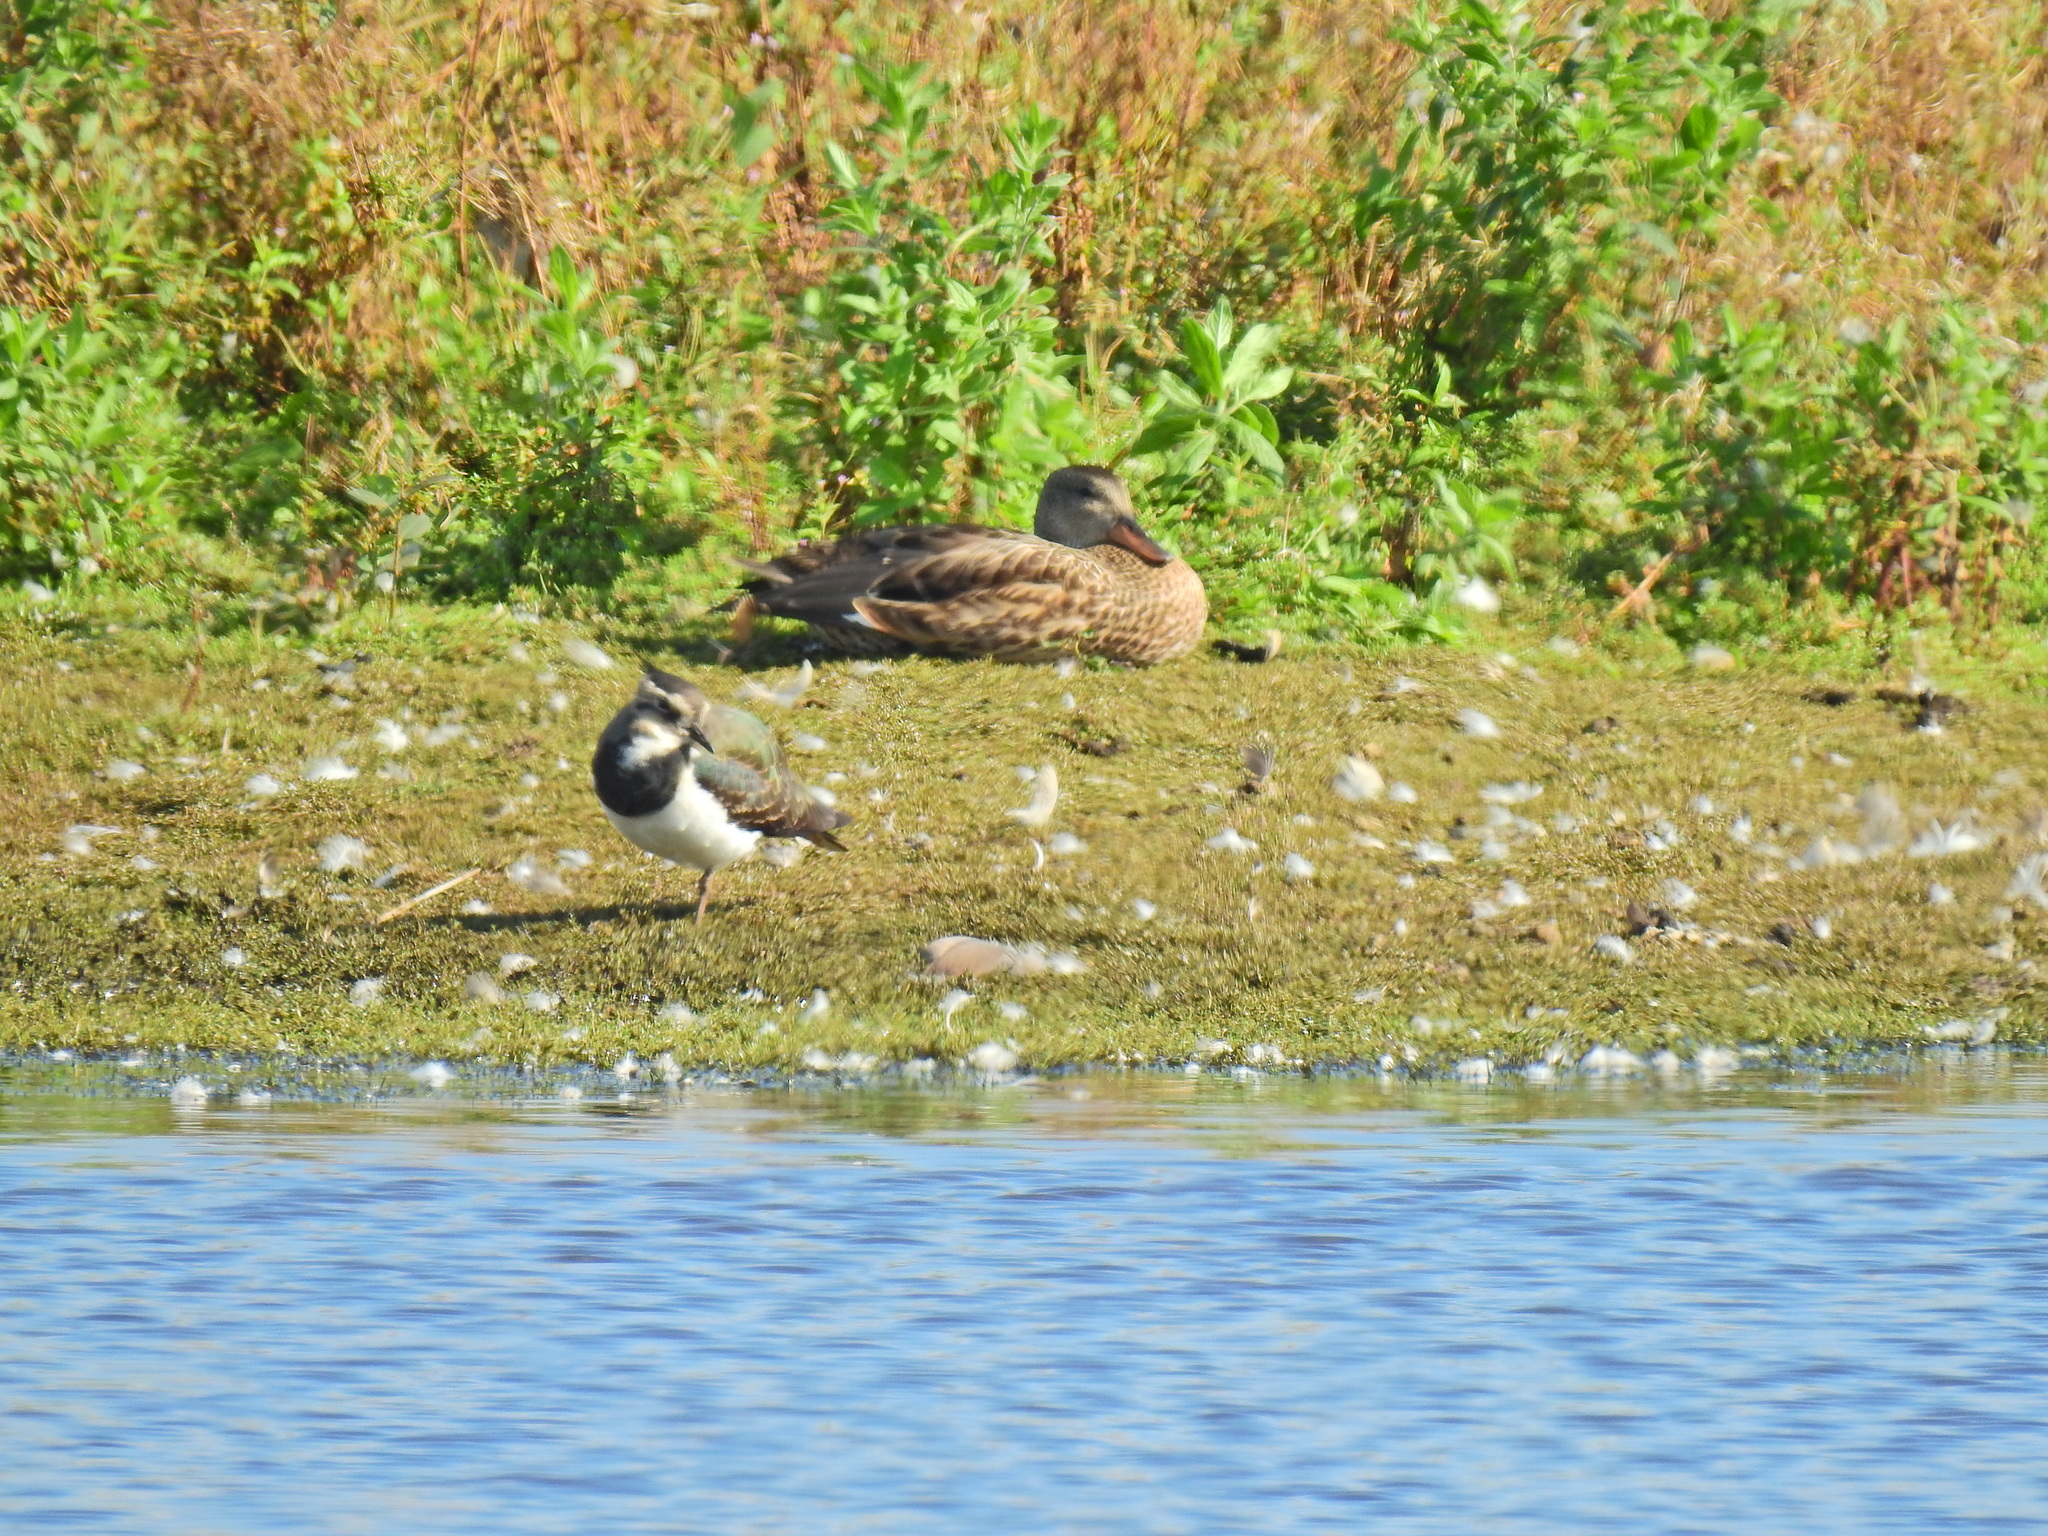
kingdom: Animalia
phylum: Chordata
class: Aves
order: Charadriiformes
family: Charadriidae
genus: Vanellus
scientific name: Vanellus vanellus
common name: Northern lapwing
